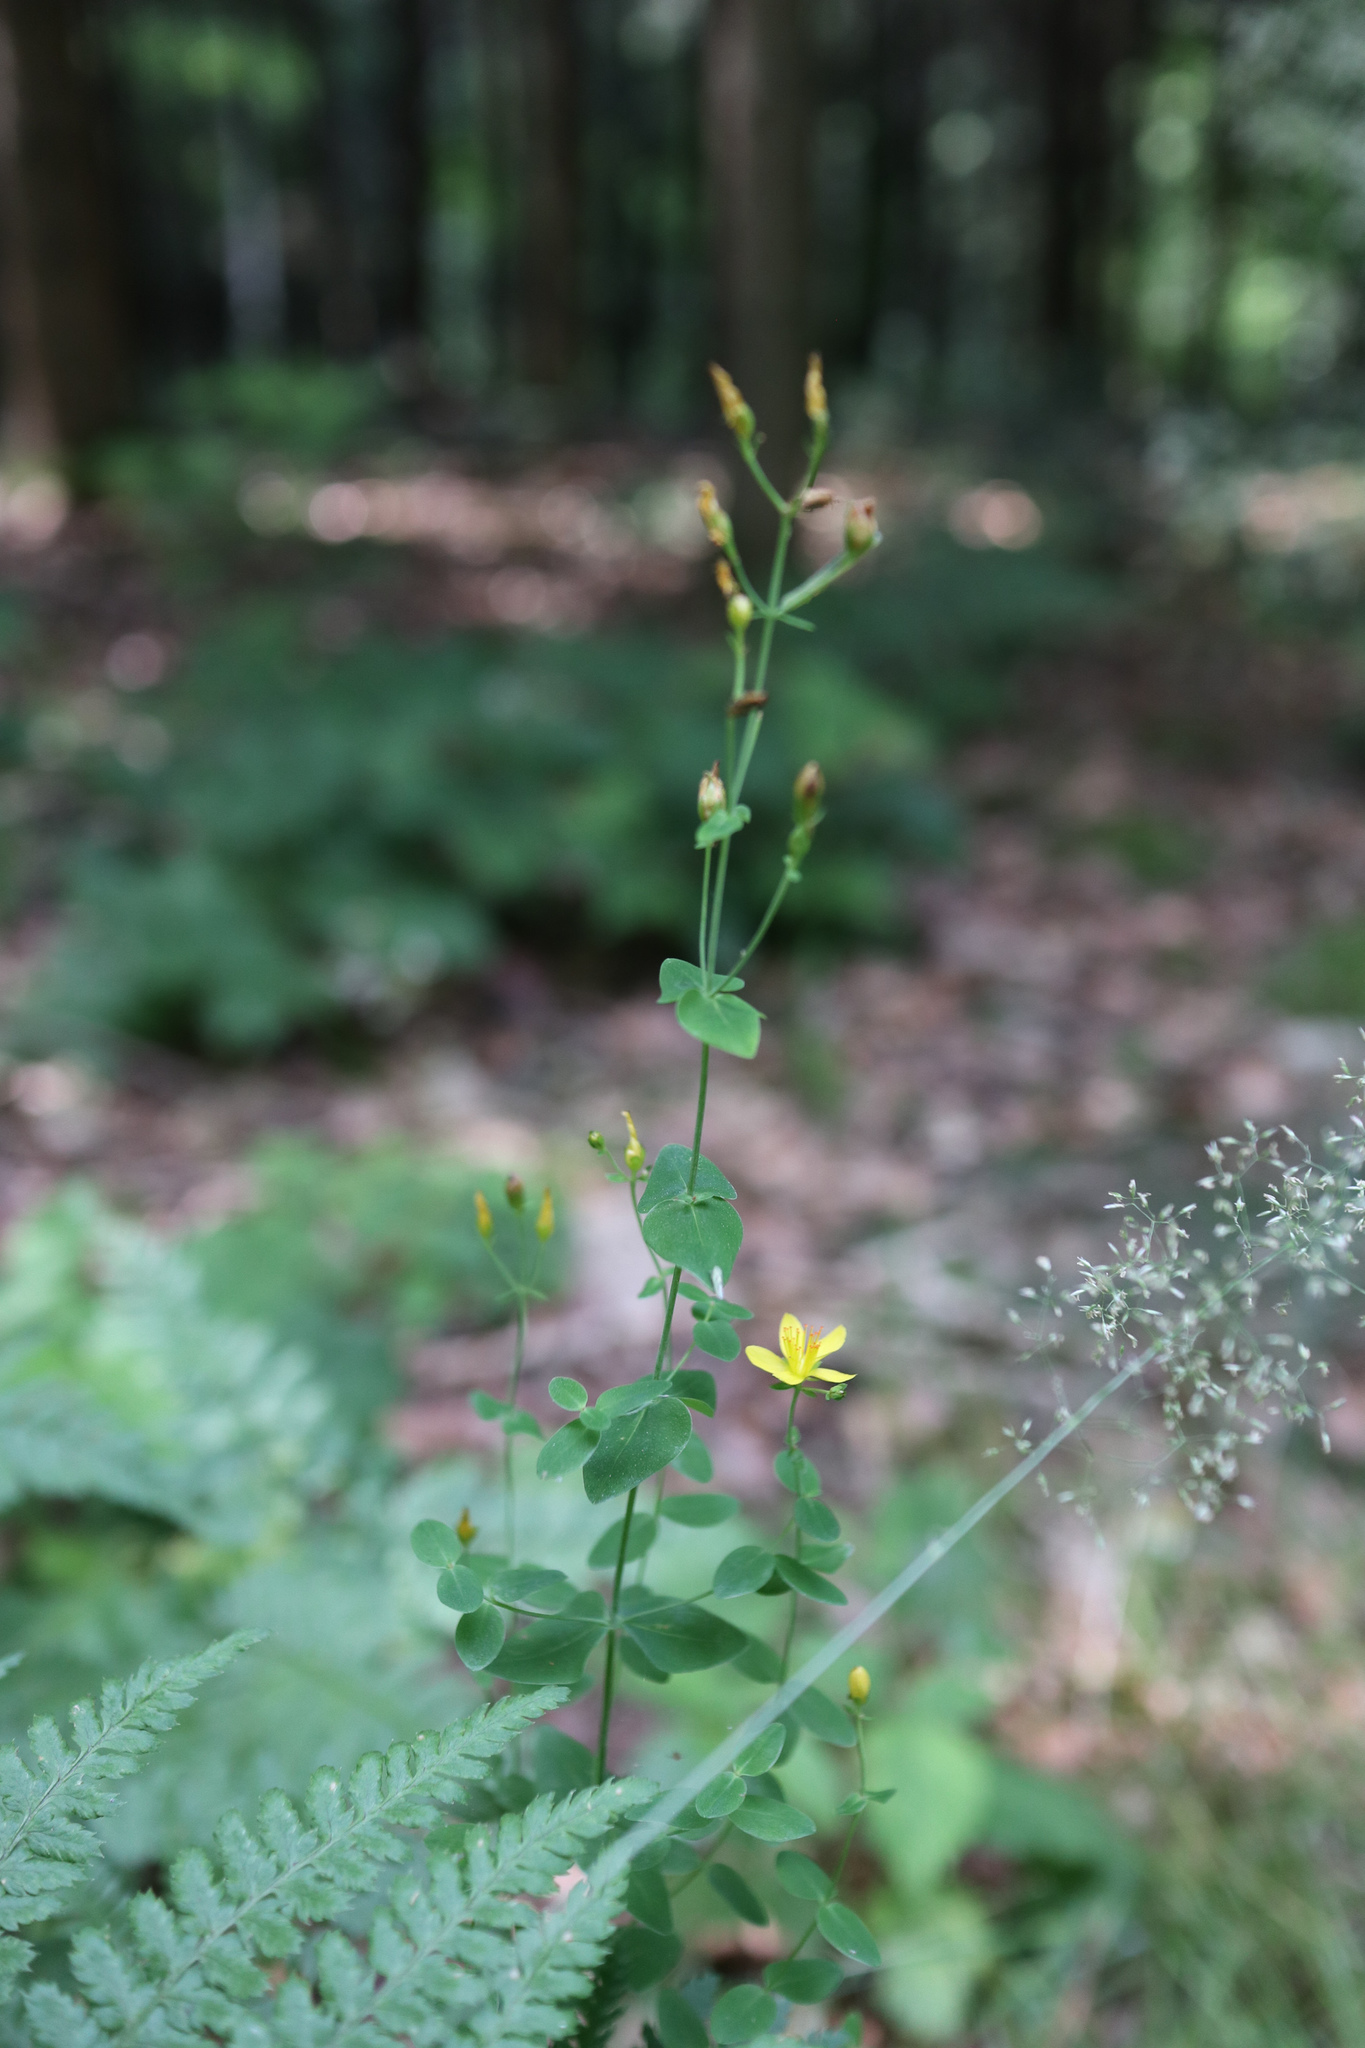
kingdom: Plantae
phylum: Tracheophyta
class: Magnoliopsida
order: Malpighiales
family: Hypericaceae
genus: Hypericum
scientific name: Hypericum pulchrum
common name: Slender st. john's-wort
